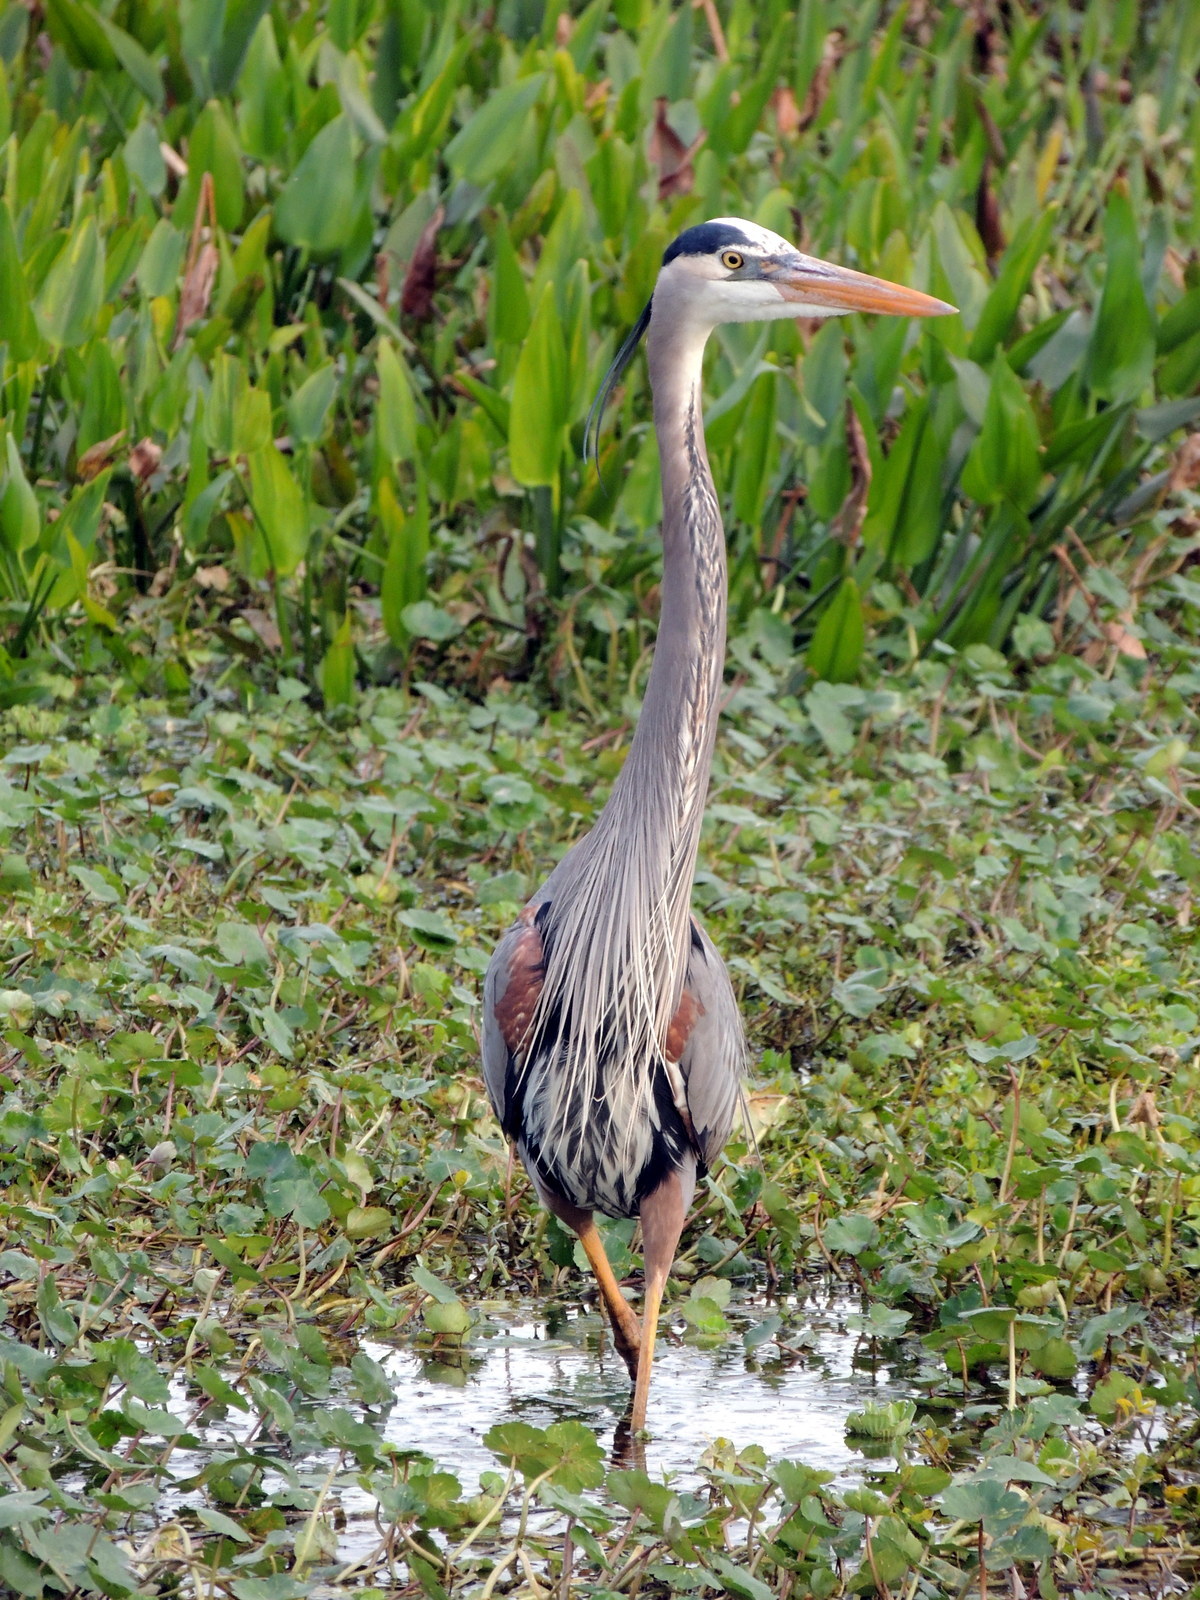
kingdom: Animalia
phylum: Chordata
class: Aves
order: Pelecaniformes
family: Ardeidae
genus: Ardea
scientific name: Ardea herodias
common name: Great blue heron
